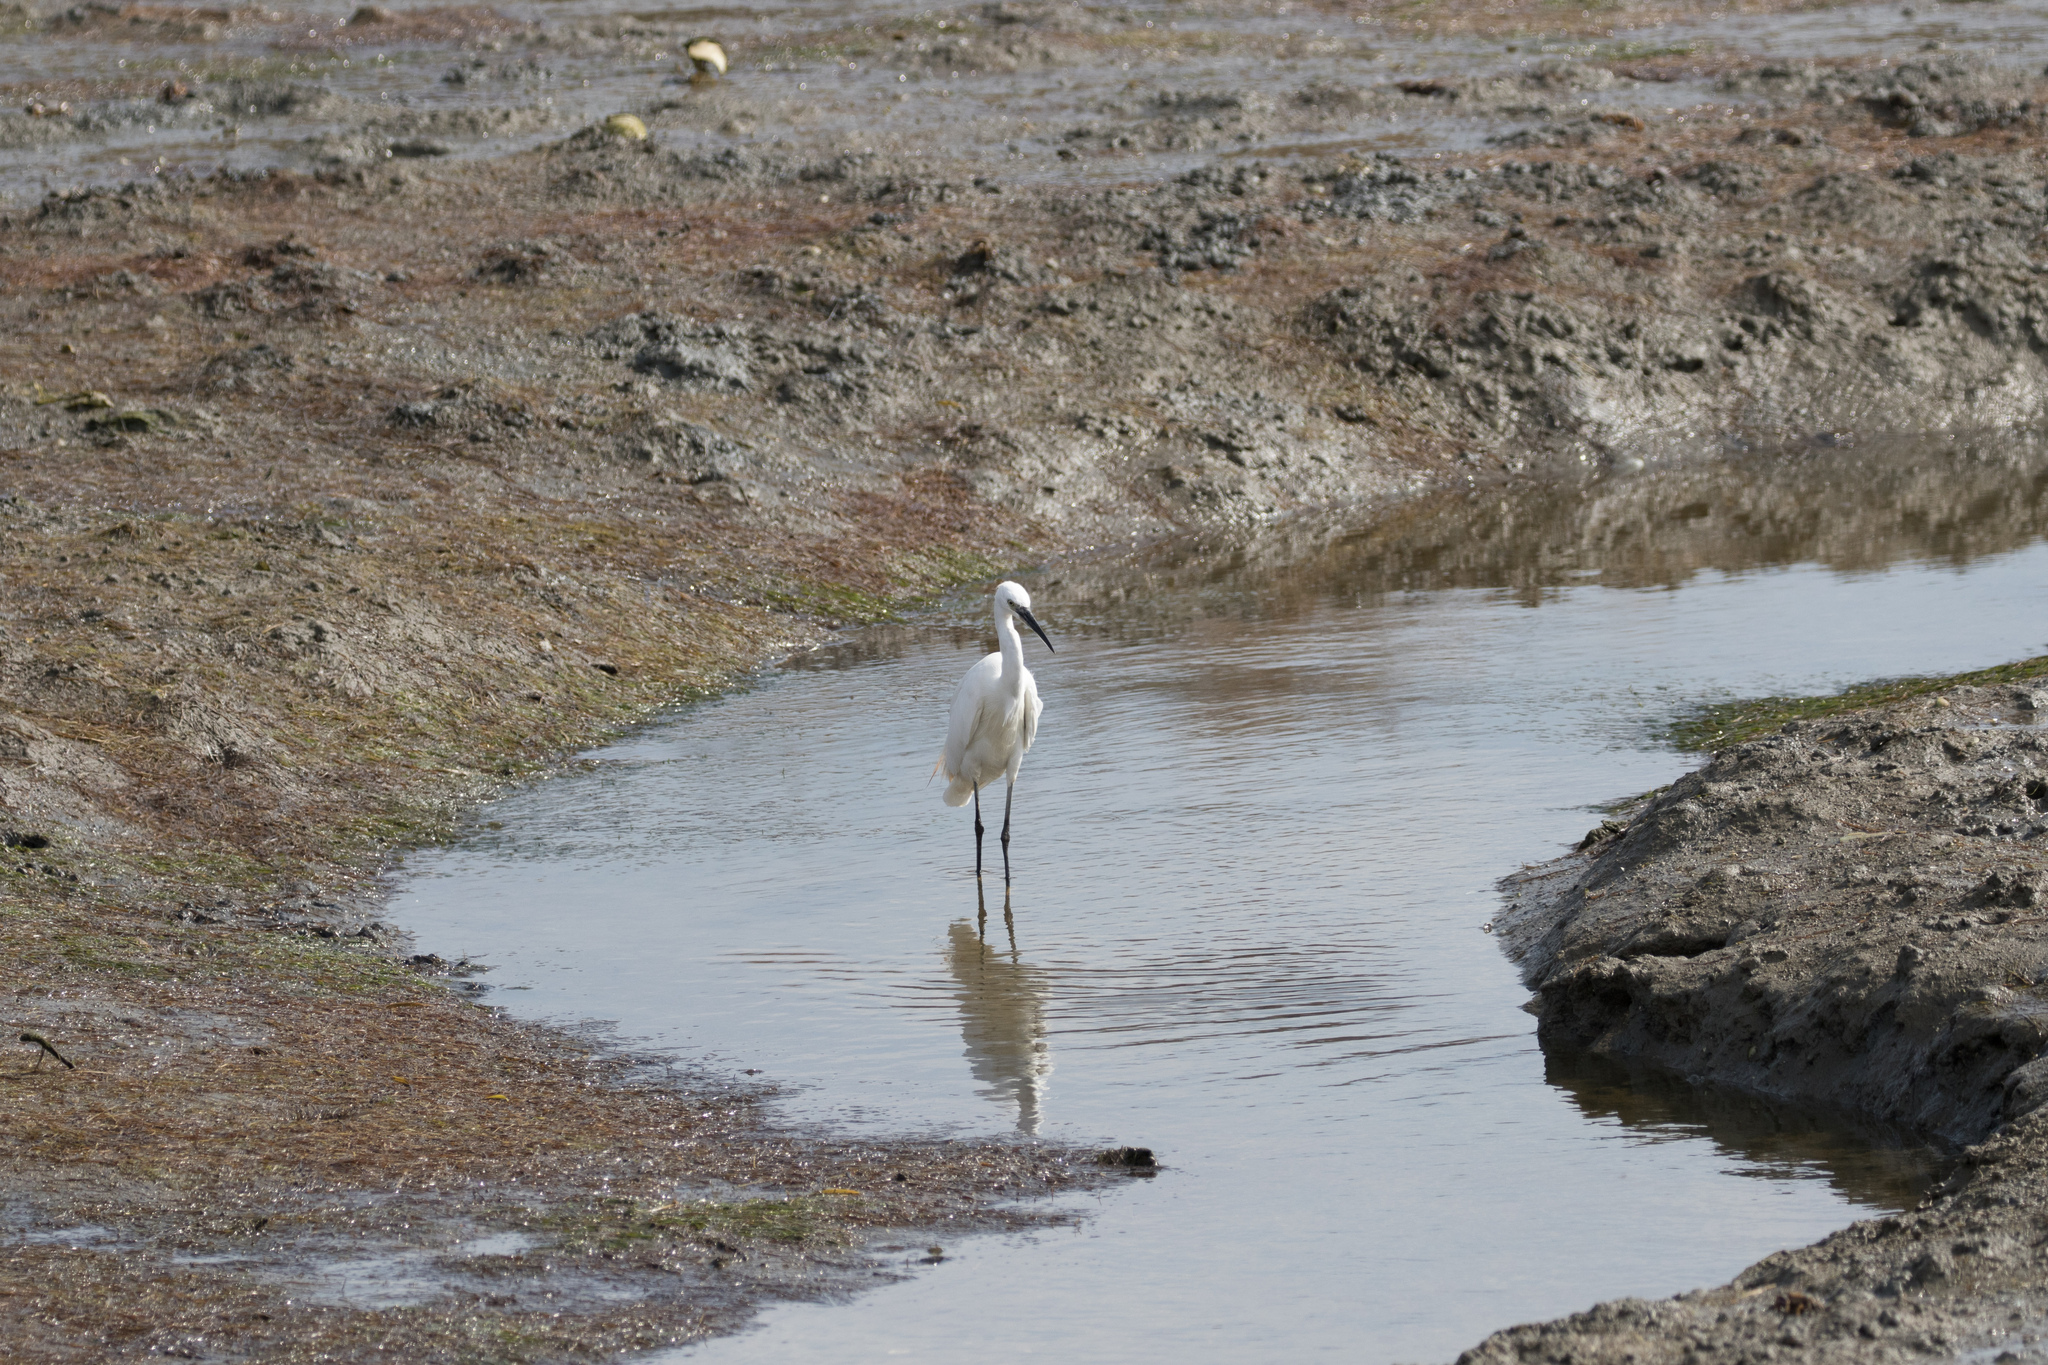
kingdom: Animalia
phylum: Chordata
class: Aves
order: Pelecaniformes
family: Ardeidae
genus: Egretta
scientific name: Egretta garzetta
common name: Little egret
